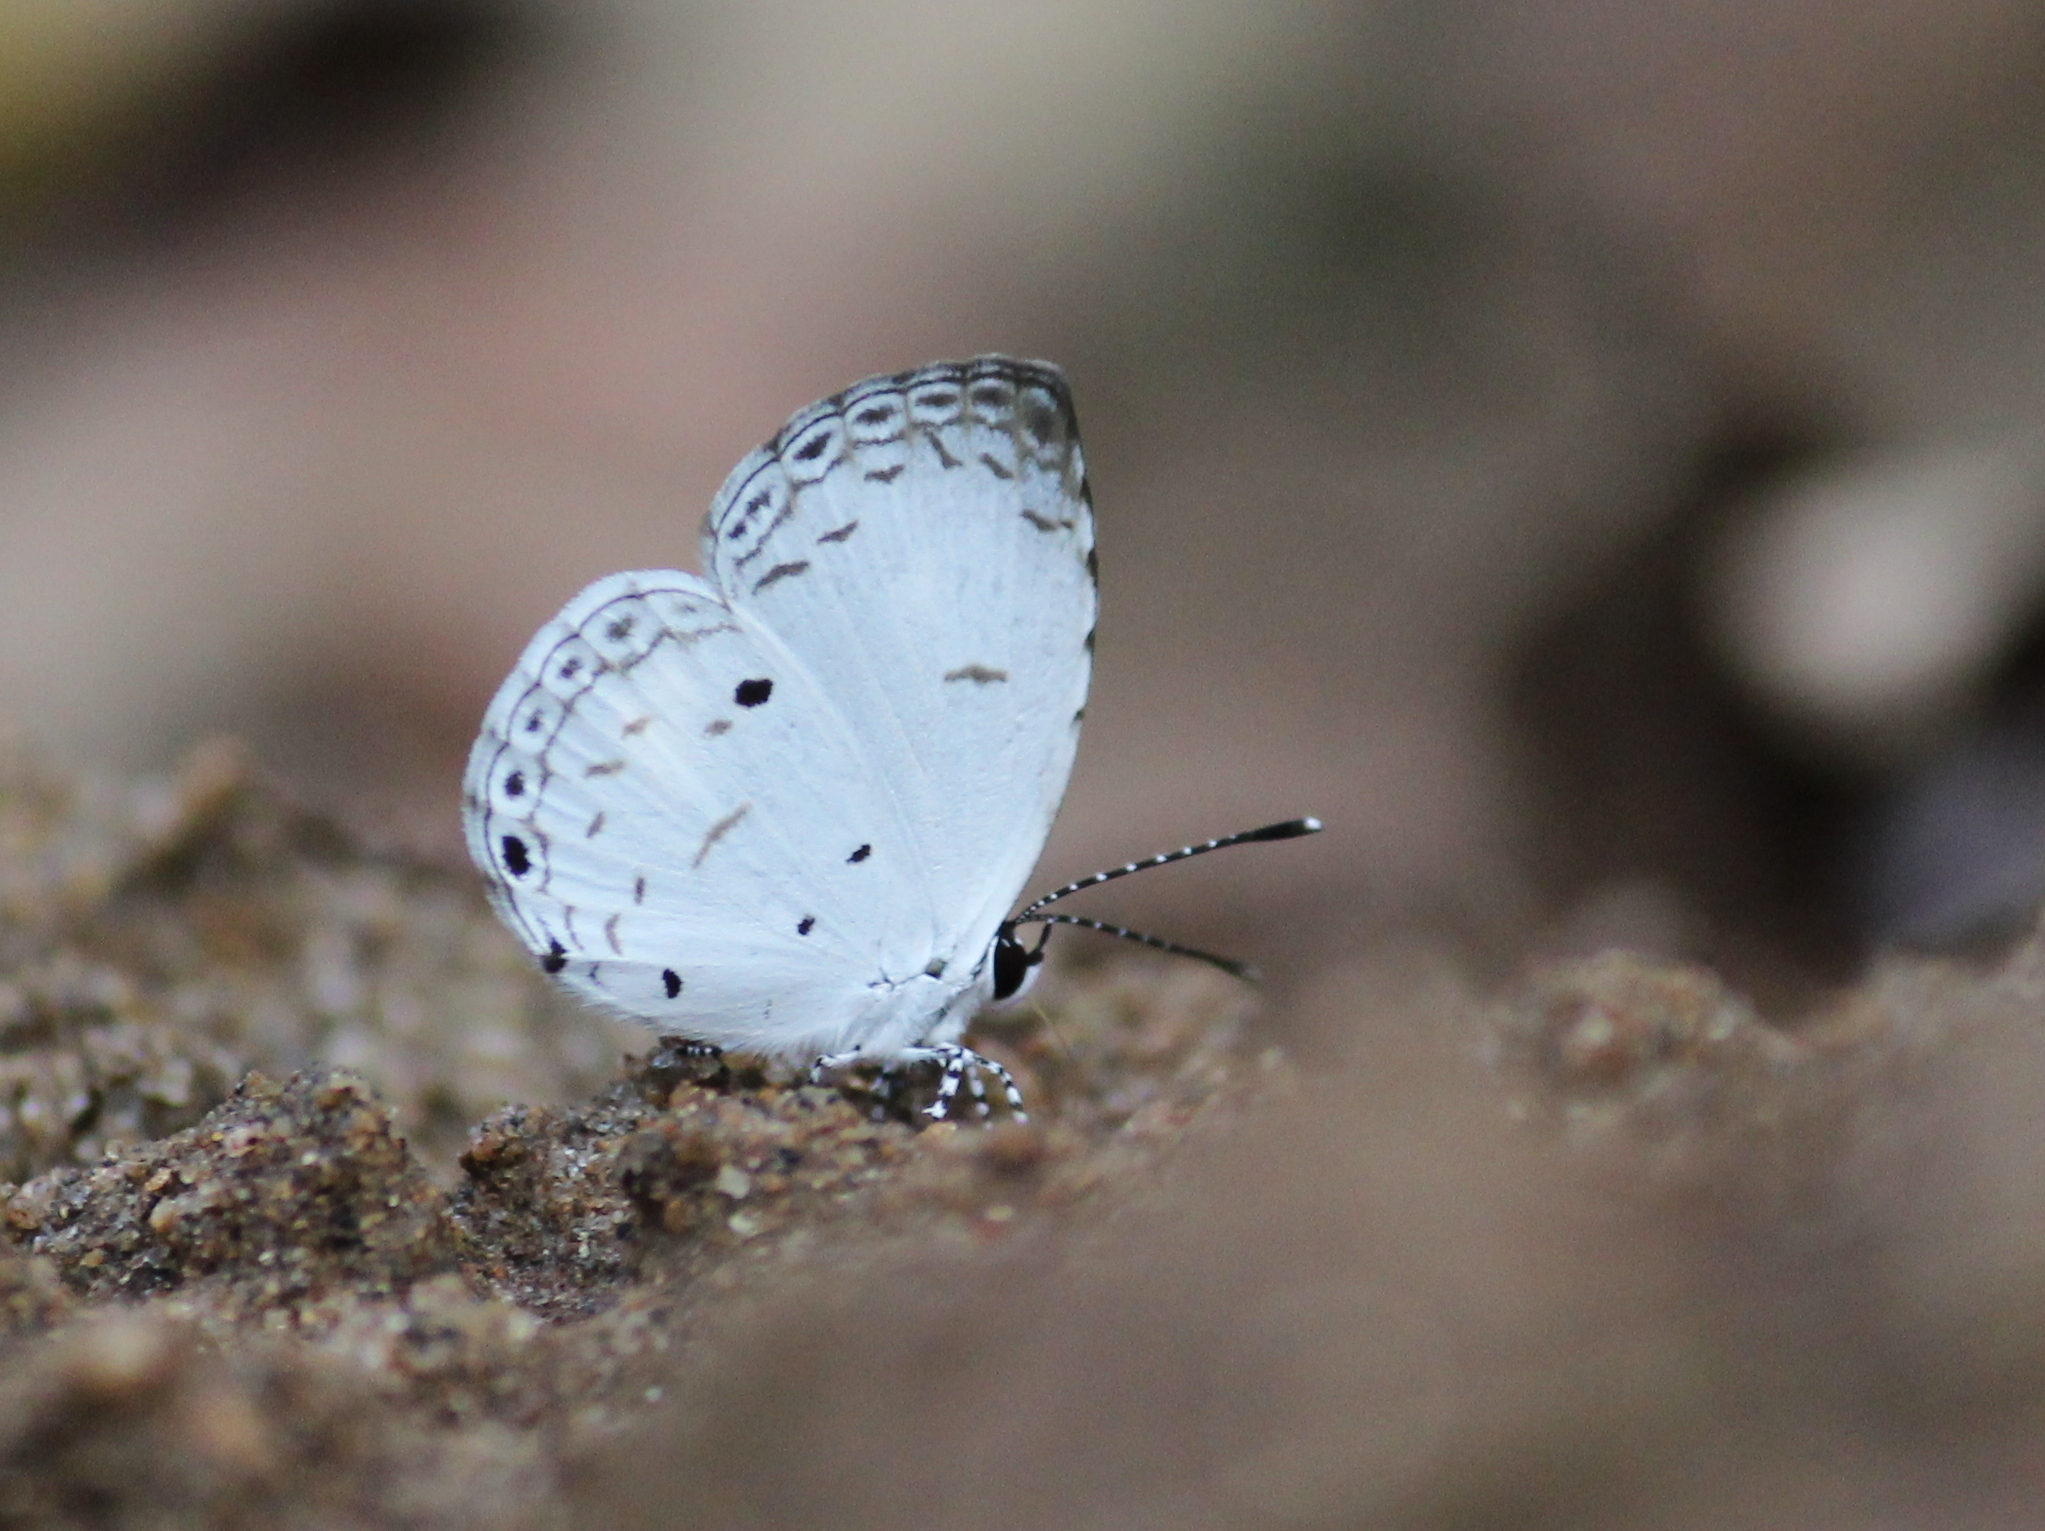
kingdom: Animalia
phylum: Arthropoda
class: Insecta
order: Lepidoptera
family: Lycaenidae
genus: Neopithecops
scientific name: Neopithecops zalmora
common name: Quaker
